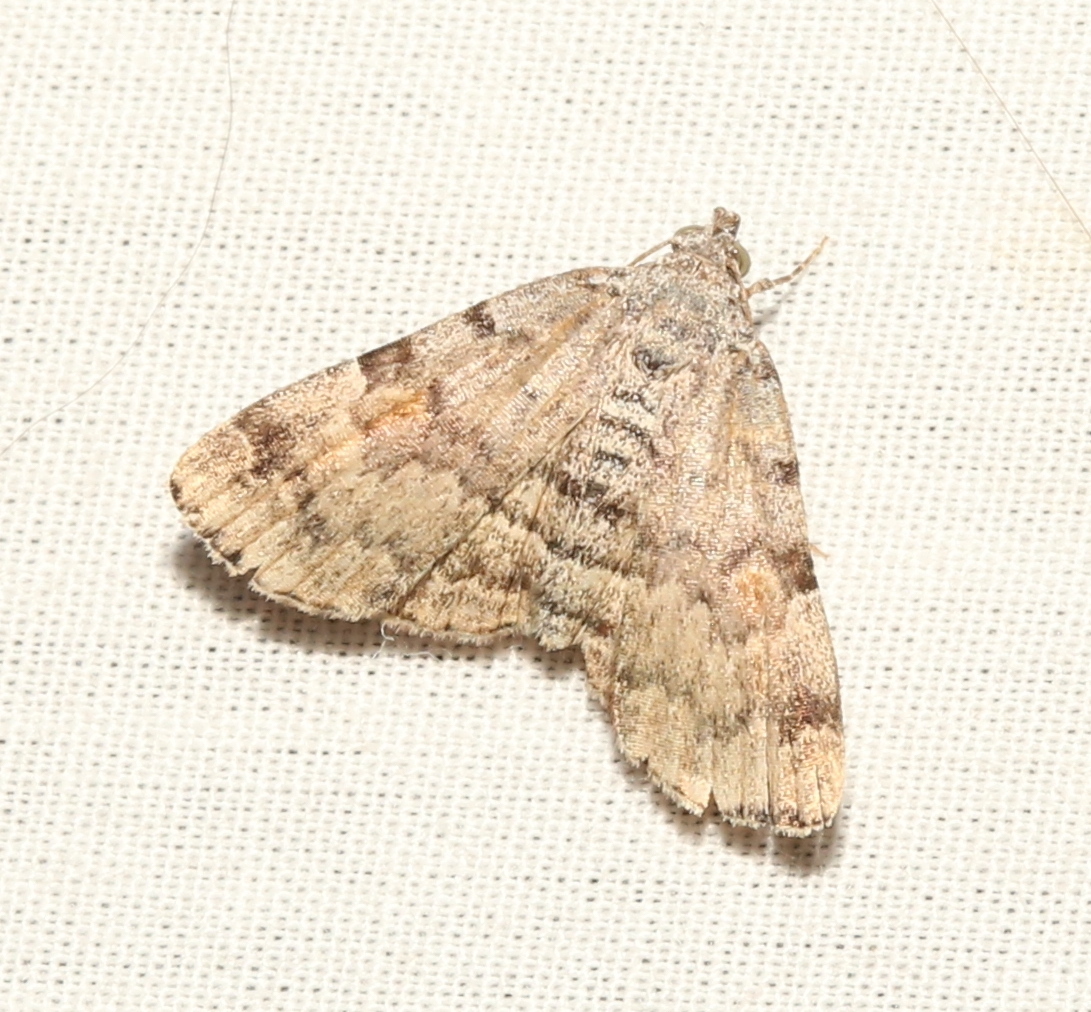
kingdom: Animalia
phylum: Arthropoda
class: Insecta
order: Lepidoptera
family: Erebidae
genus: Idia
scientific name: Idia americalis
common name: American idia moth
